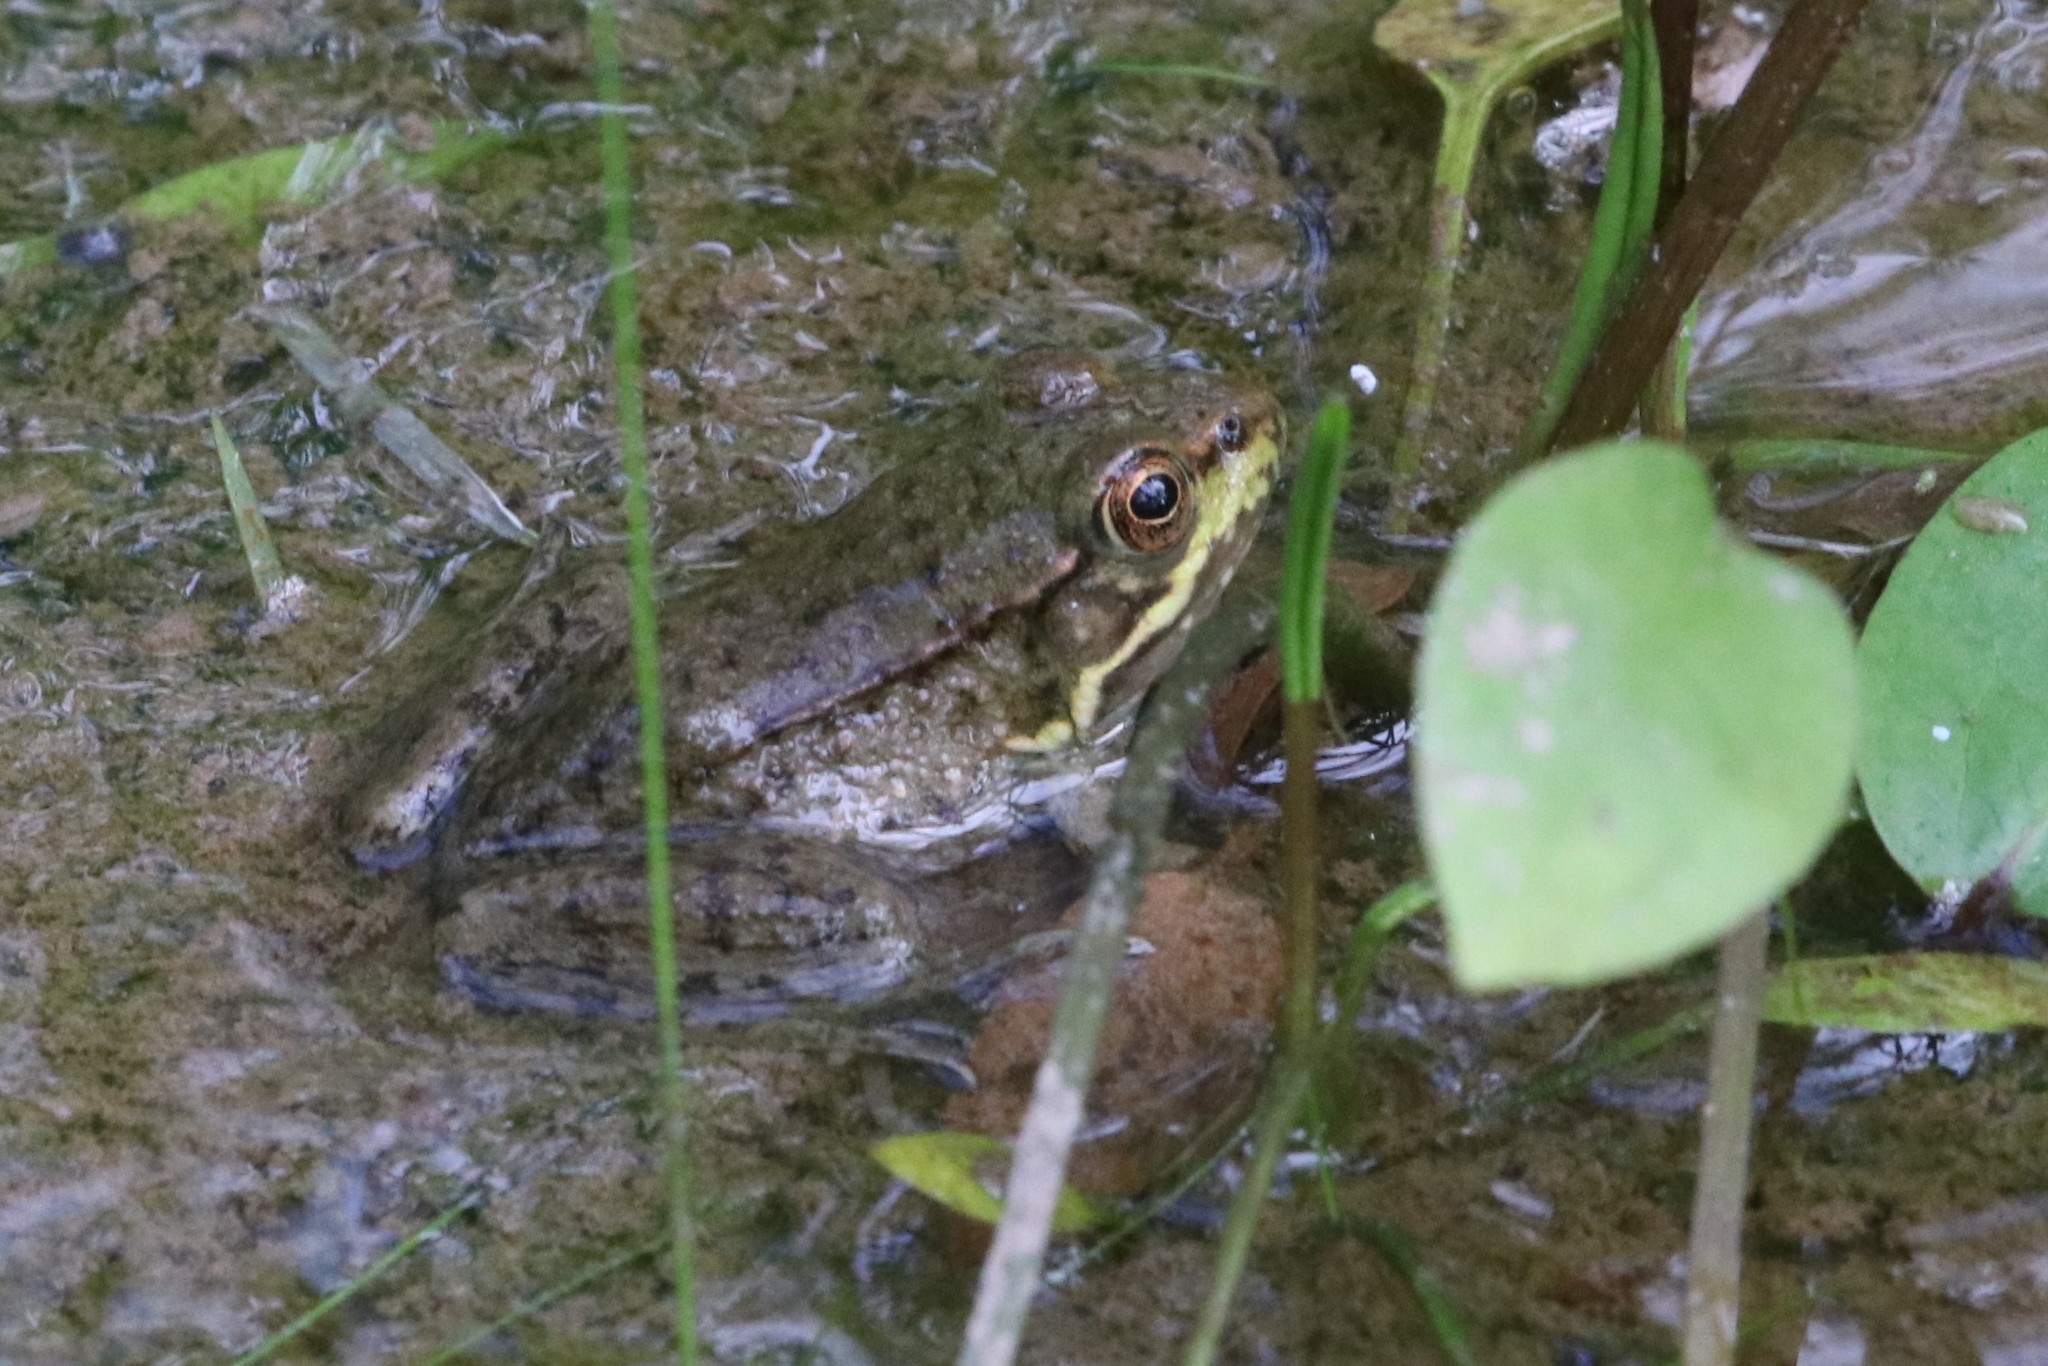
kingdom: Animalia
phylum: Chordata
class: Amphibia
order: Anura
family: Ranidae
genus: Lithobates
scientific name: Lithobates clamitans
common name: Green frog
